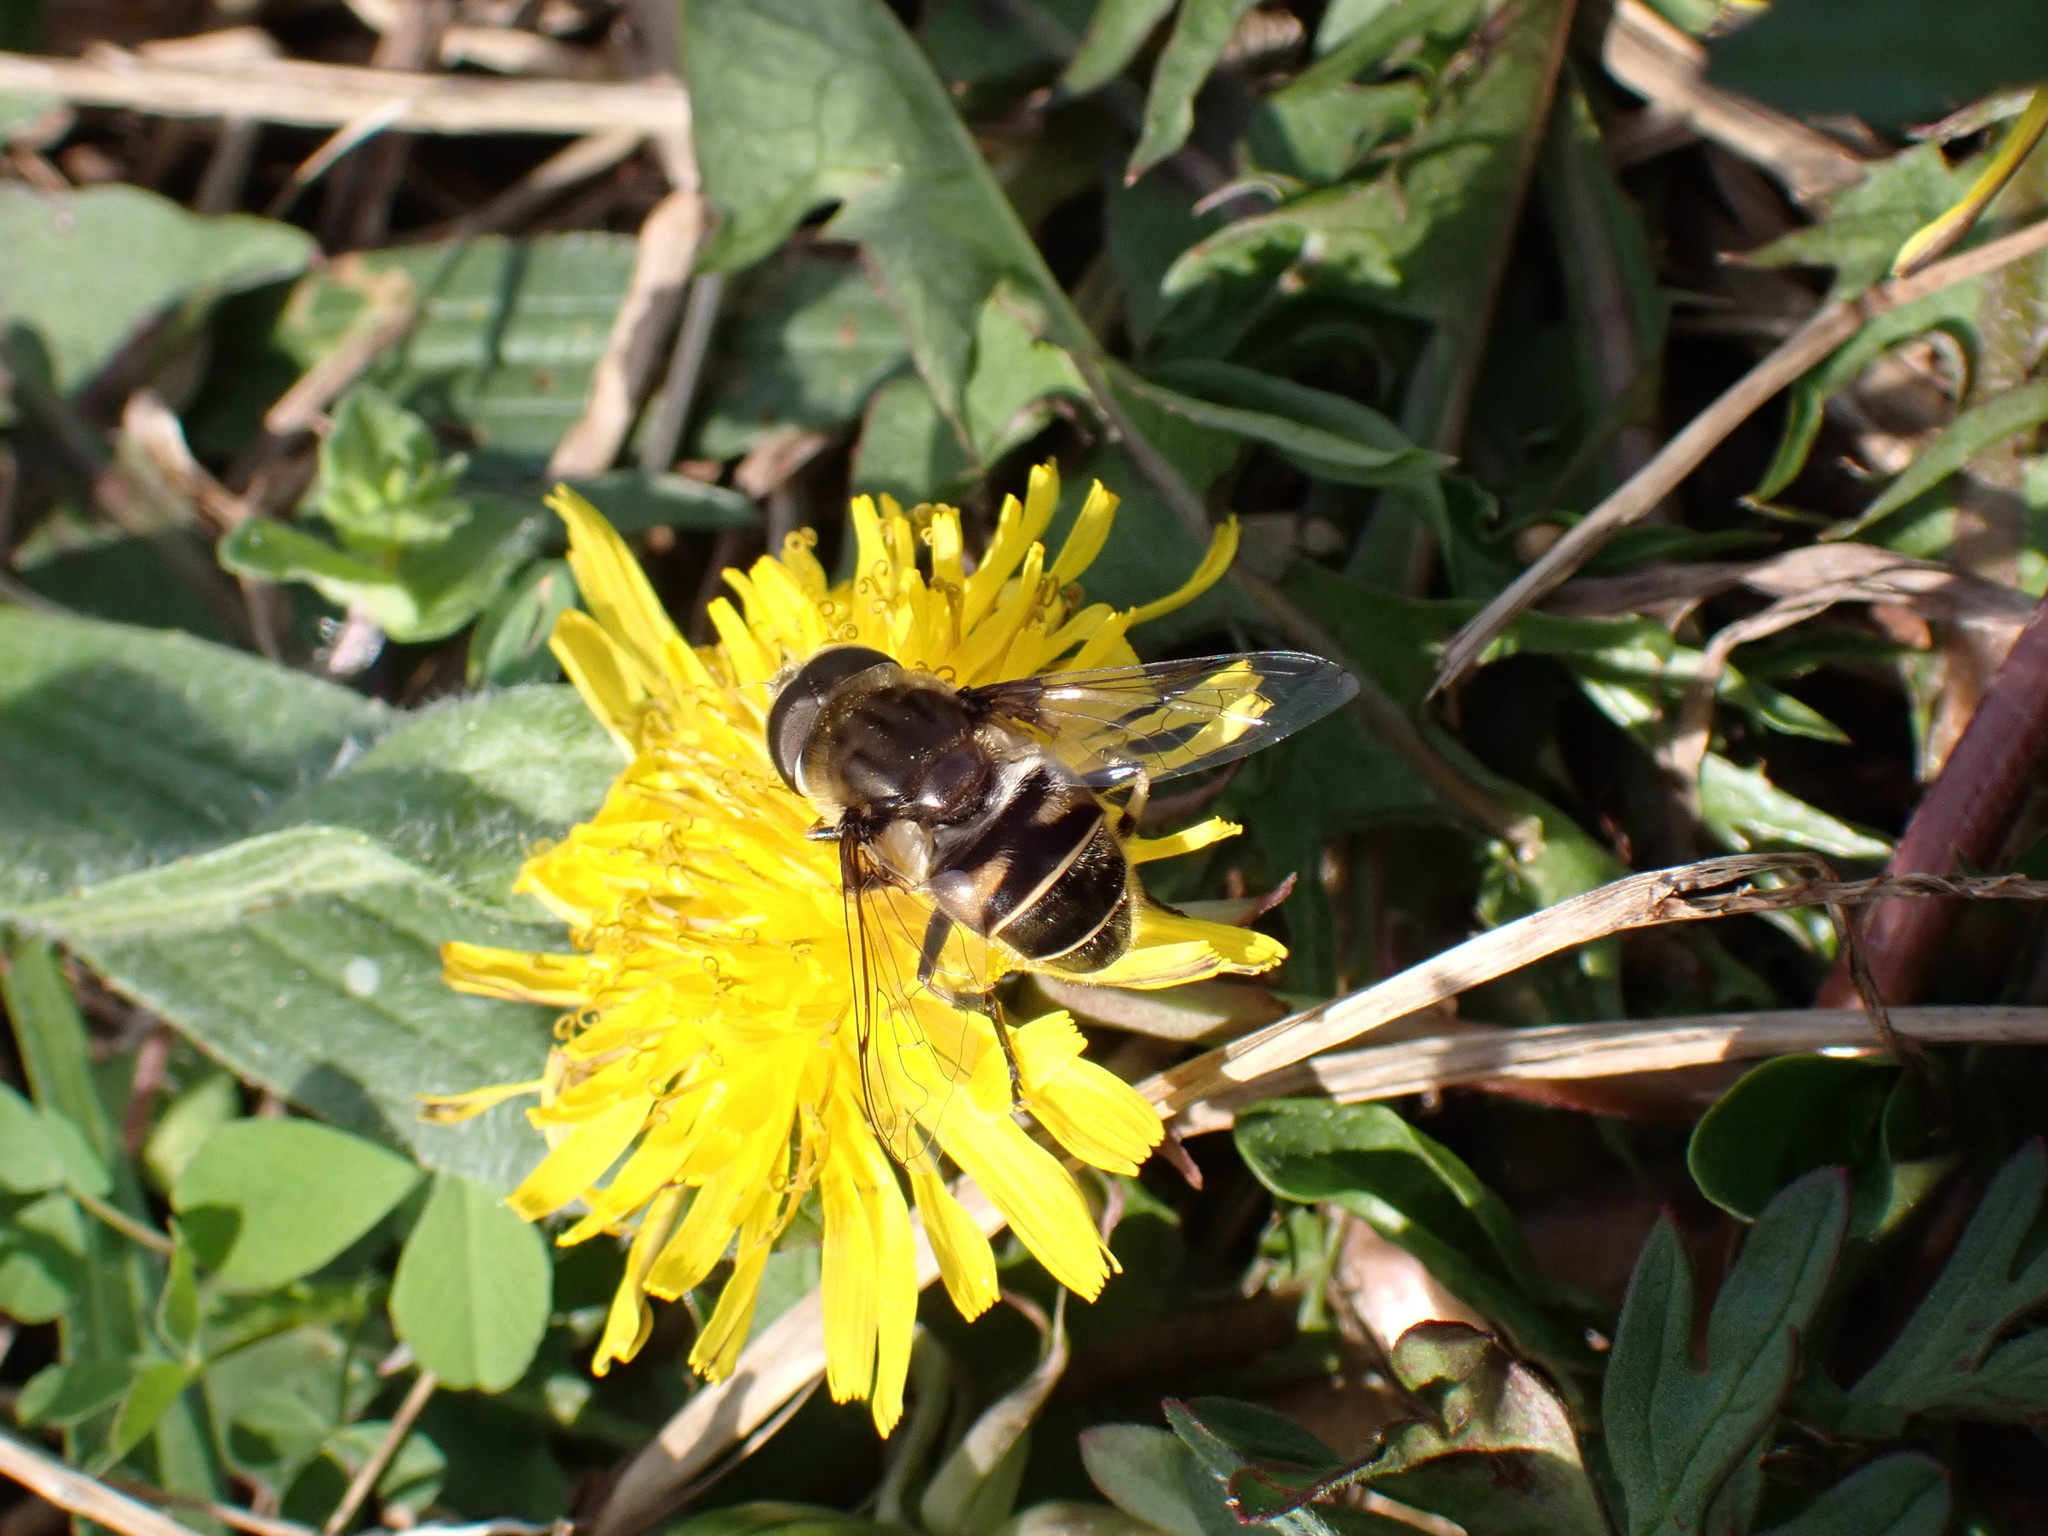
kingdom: Animalia
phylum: Arthropoda
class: Insecta
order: Diptera
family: Syrphidae
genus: Eristalis
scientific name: Eristalis dimidiata
